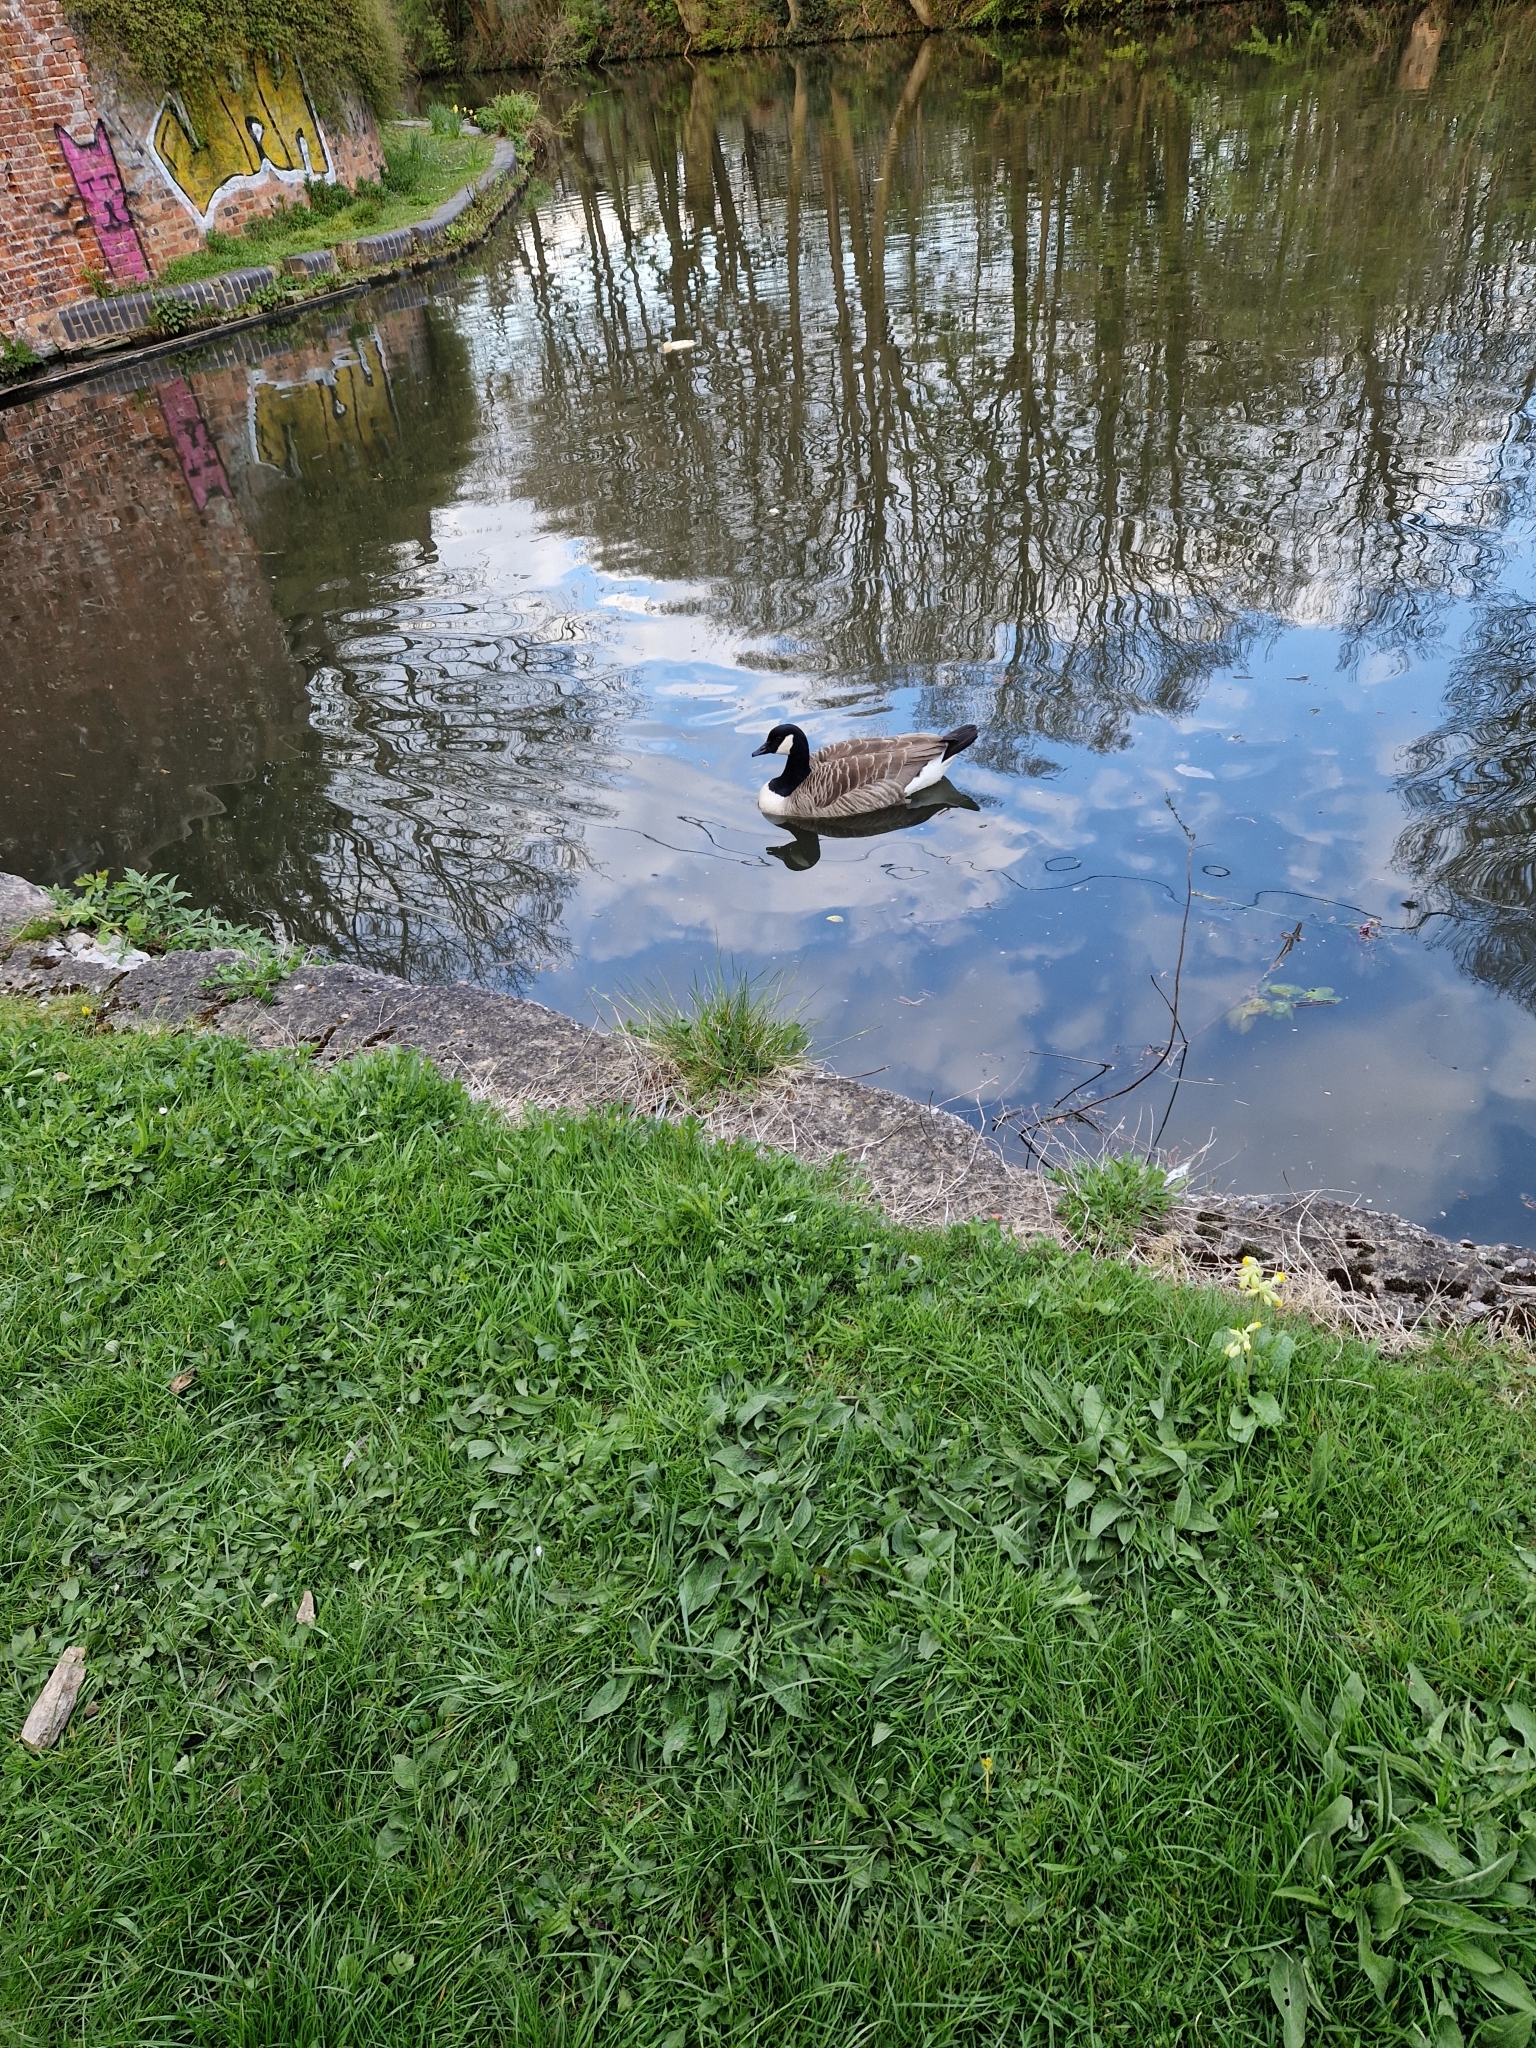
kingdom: Animalia
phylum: Chordata
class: Aves
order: Anseriformes
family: Anatidae
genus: Branta
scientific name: Branta canadensis
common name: Canada goose
